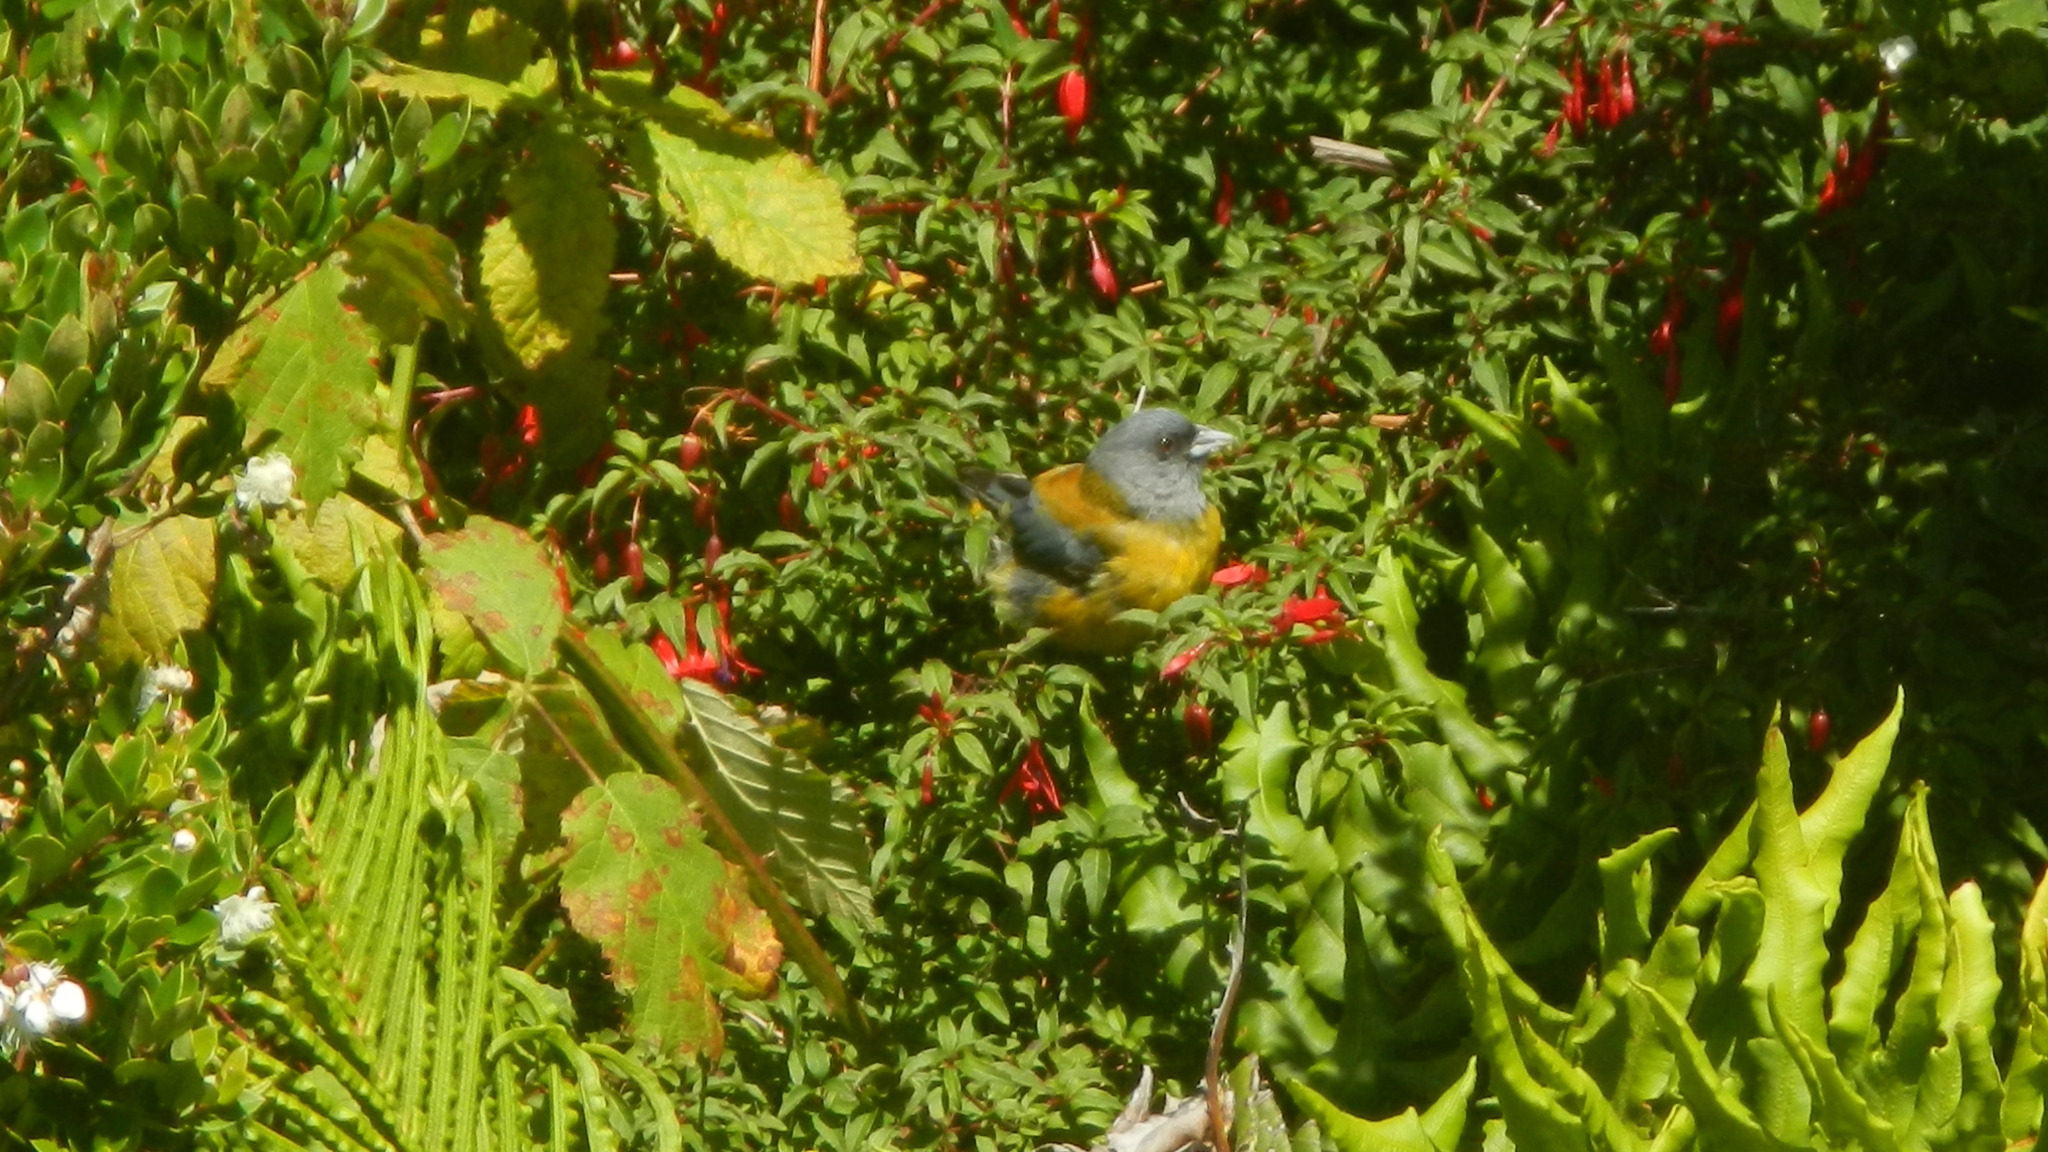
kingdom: Animalia
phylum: Chordata
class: Aves
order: Passeriformes
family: Thraupidae
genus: Phrygilus
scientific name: Phrygilus patagonicus
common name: Patagonian sierra finch
